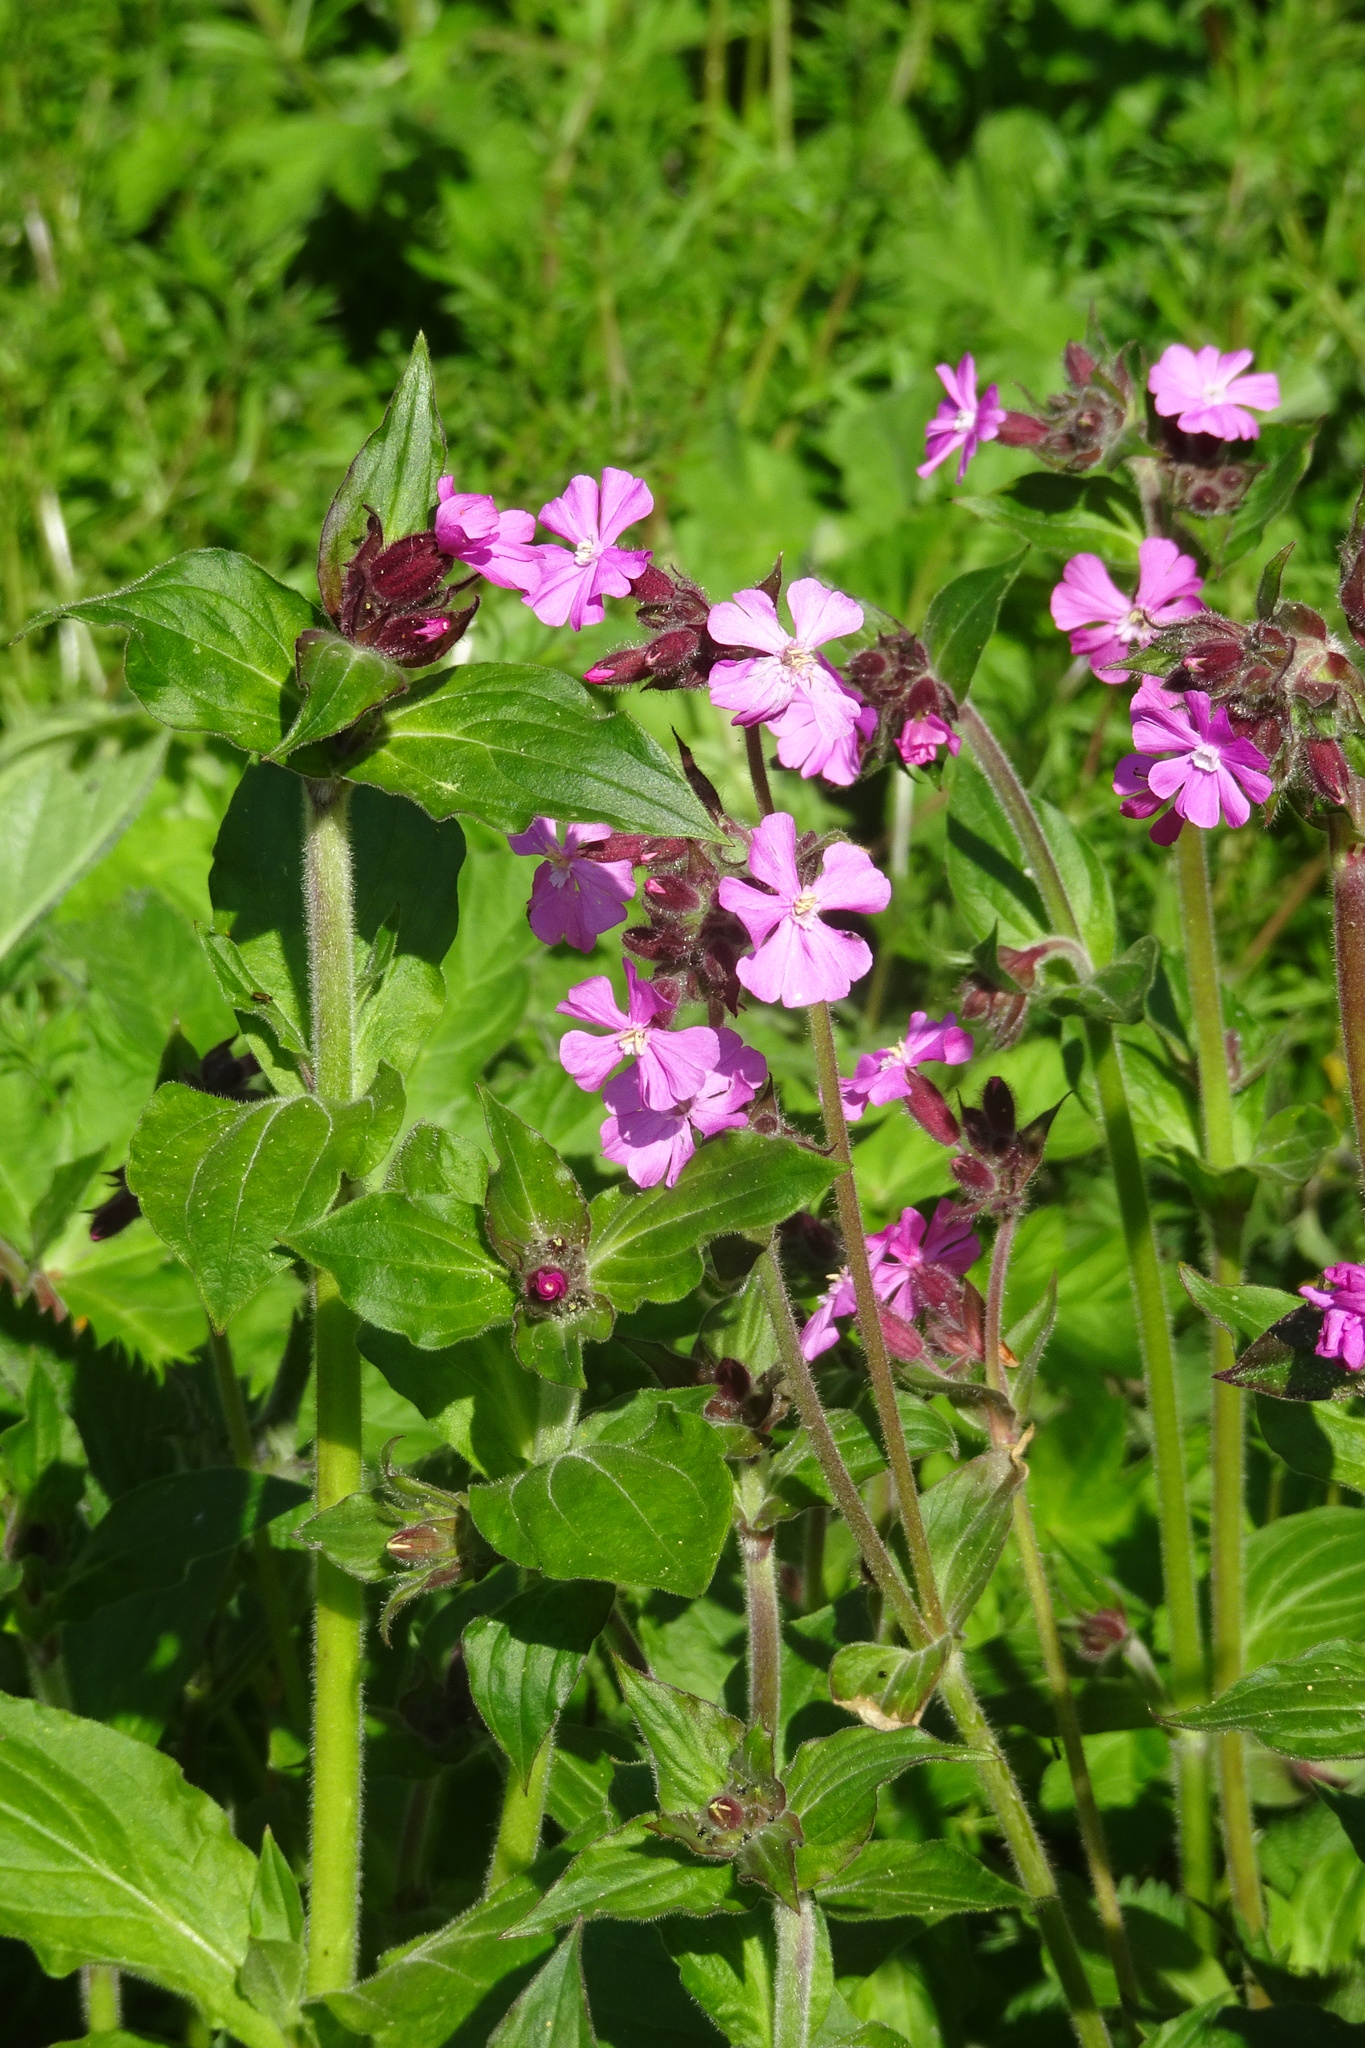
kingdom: Plantae
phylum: Tracheophyta
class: Magnoliopsida
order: Caryophyllales
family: Caryophyllaceae
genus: Silene
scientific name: Silene dioica
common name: Red campion
